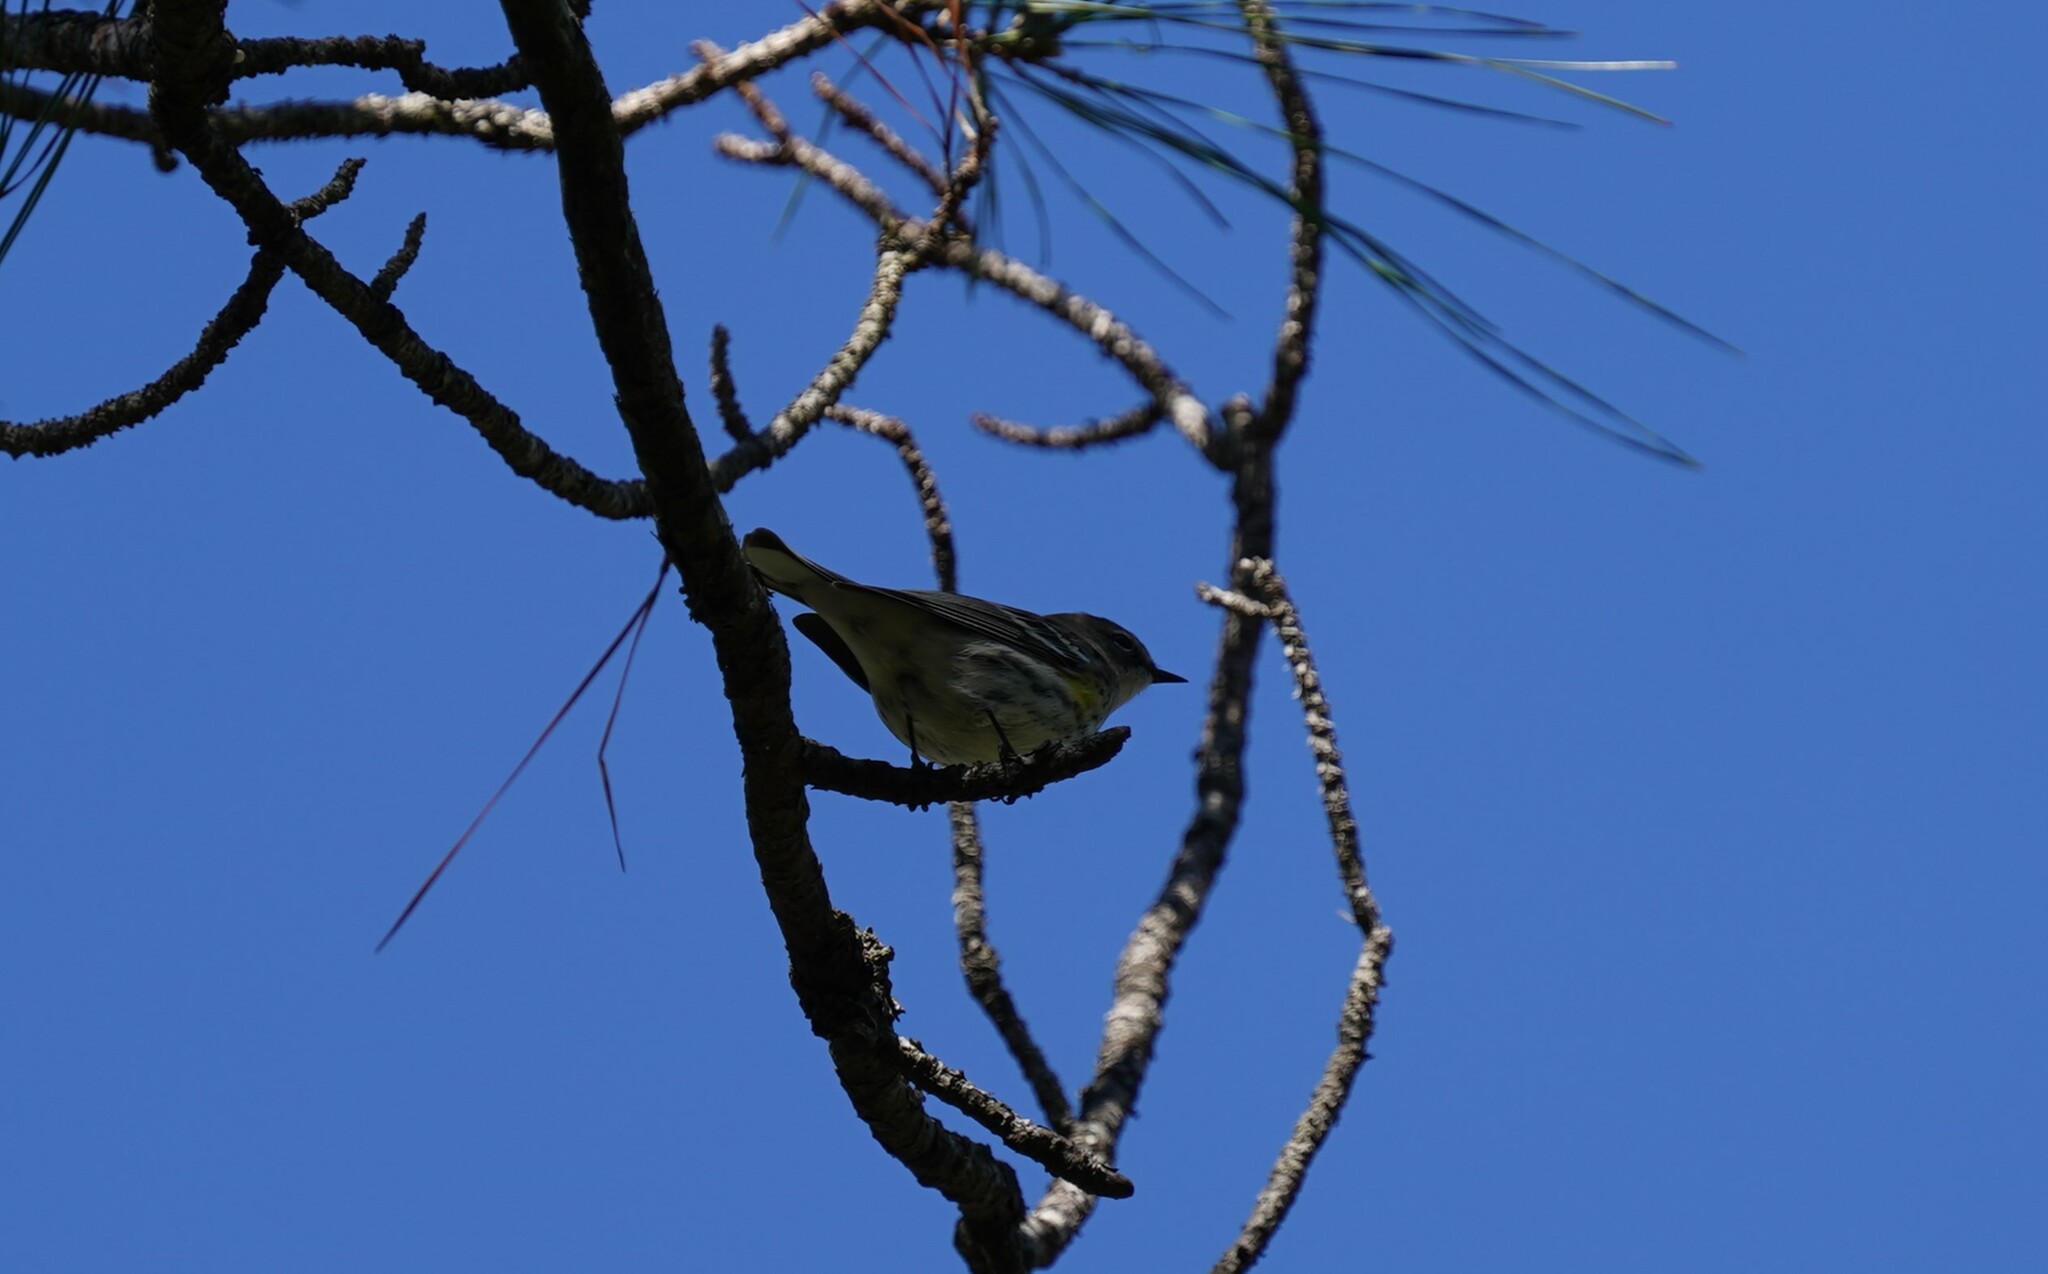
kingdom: Animalia
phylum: Chordata
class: Aves
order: Passeriformes
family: Parulidae
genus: Setophaga
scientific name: Setophaga coronata
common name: Myrtle warbler
